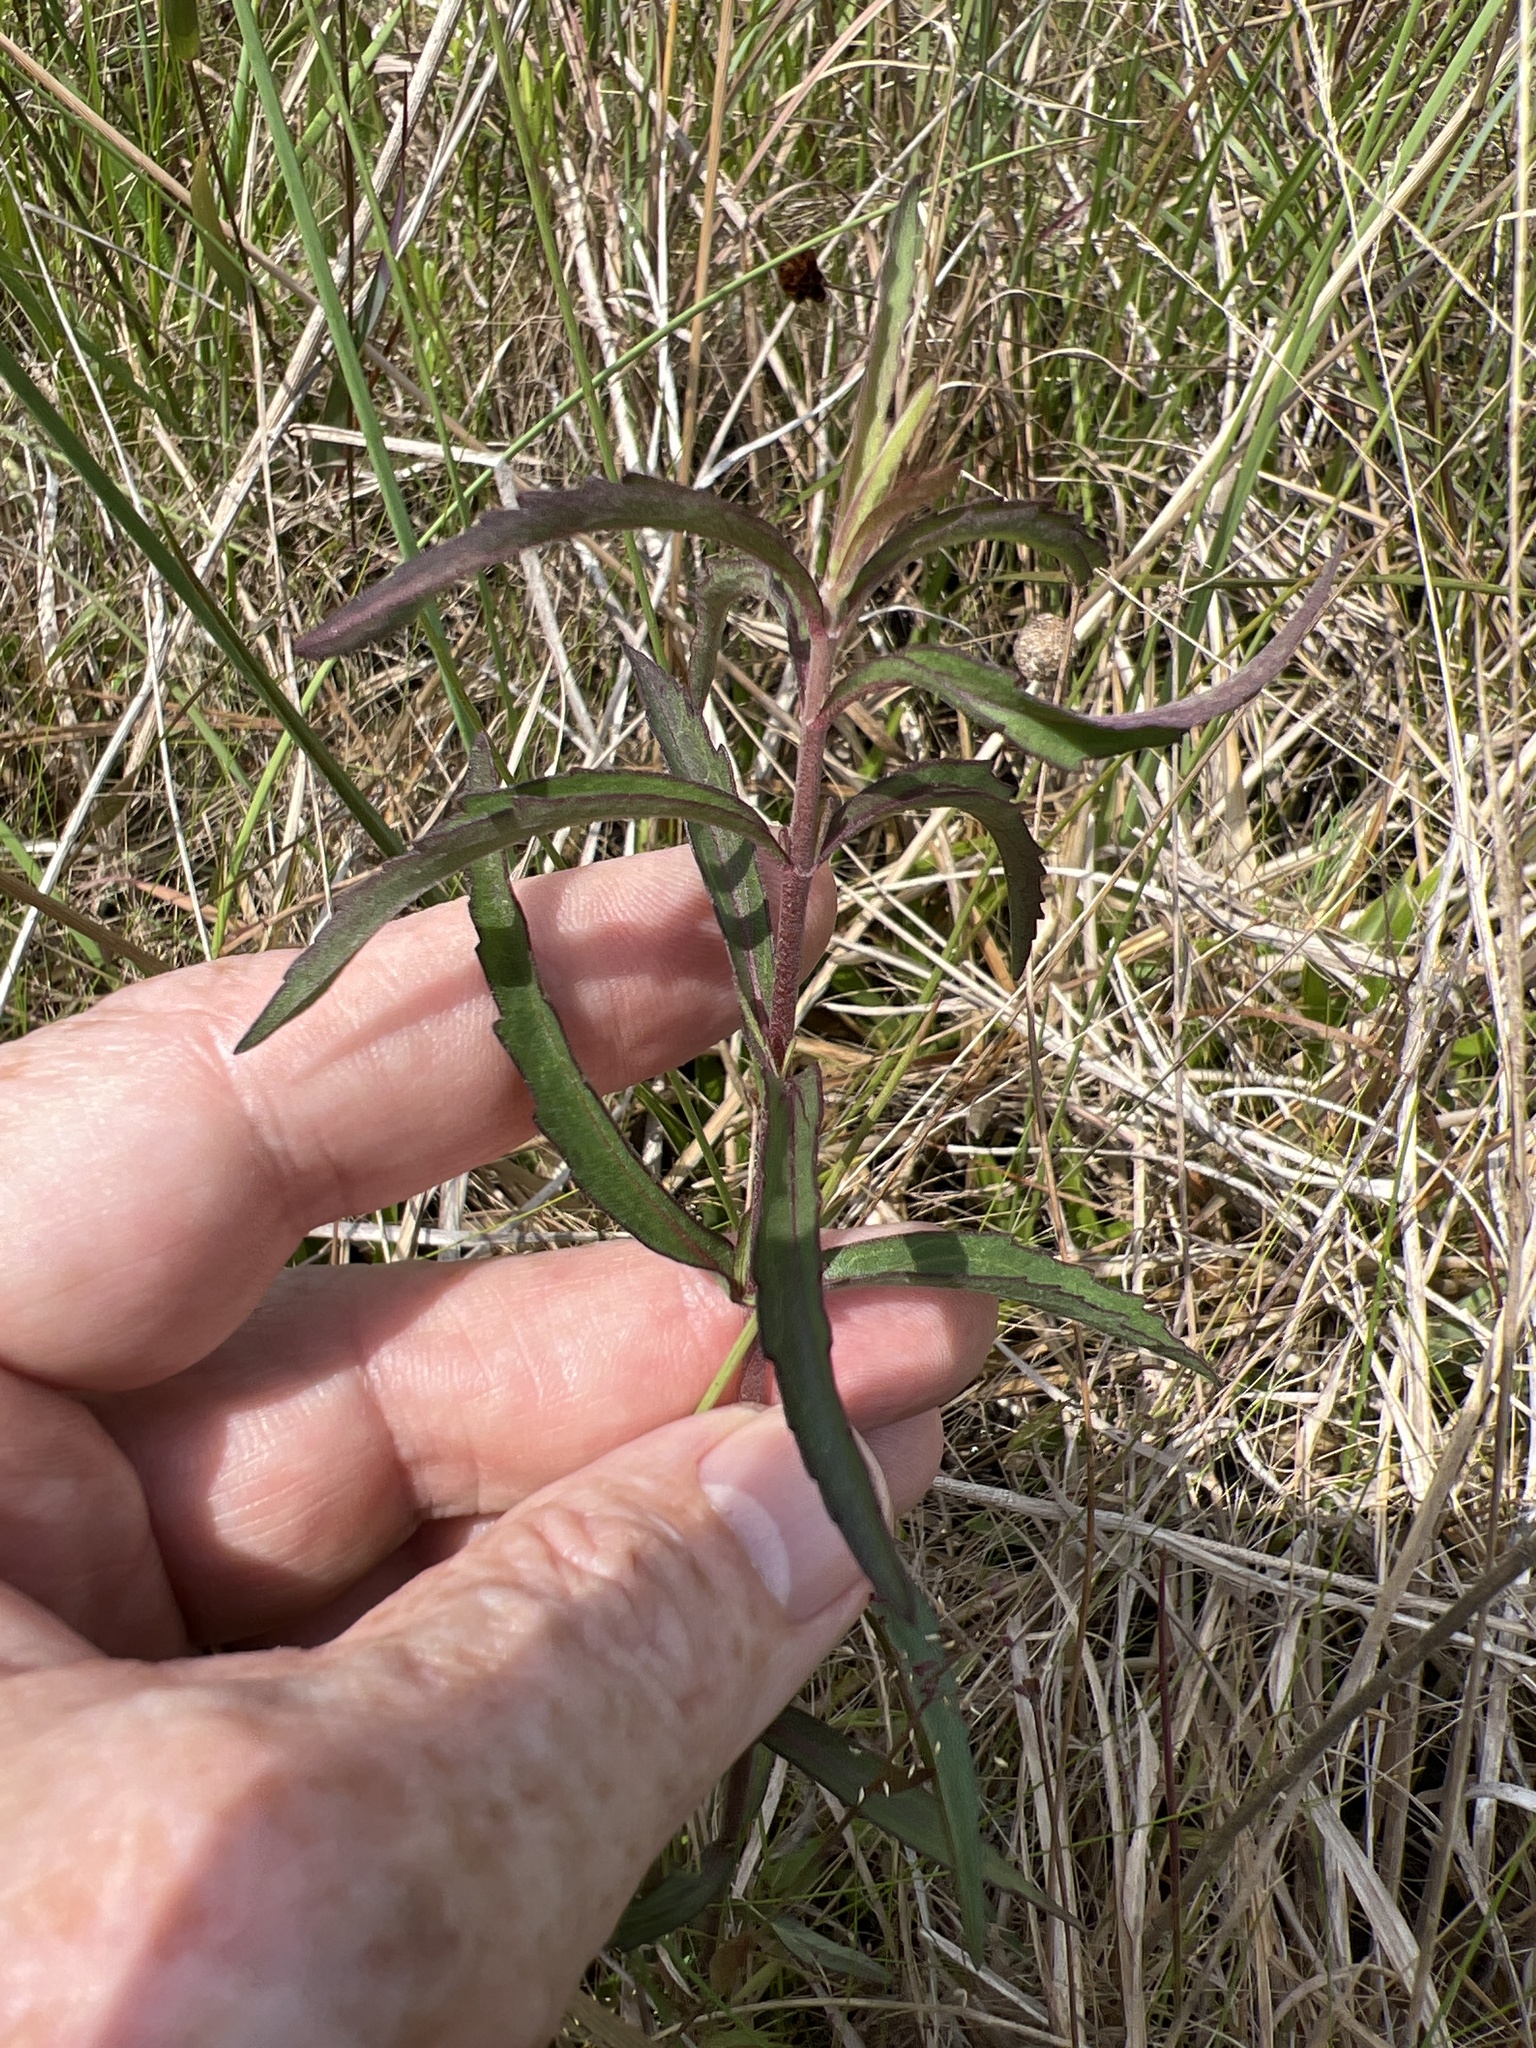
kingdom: Plantae
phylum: Tracheophyta
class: Magnoliopsida
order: Asterales
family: Asteraceae
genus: Eupatorium
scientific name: Eupatorium leucolepis
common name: Justiceweed
